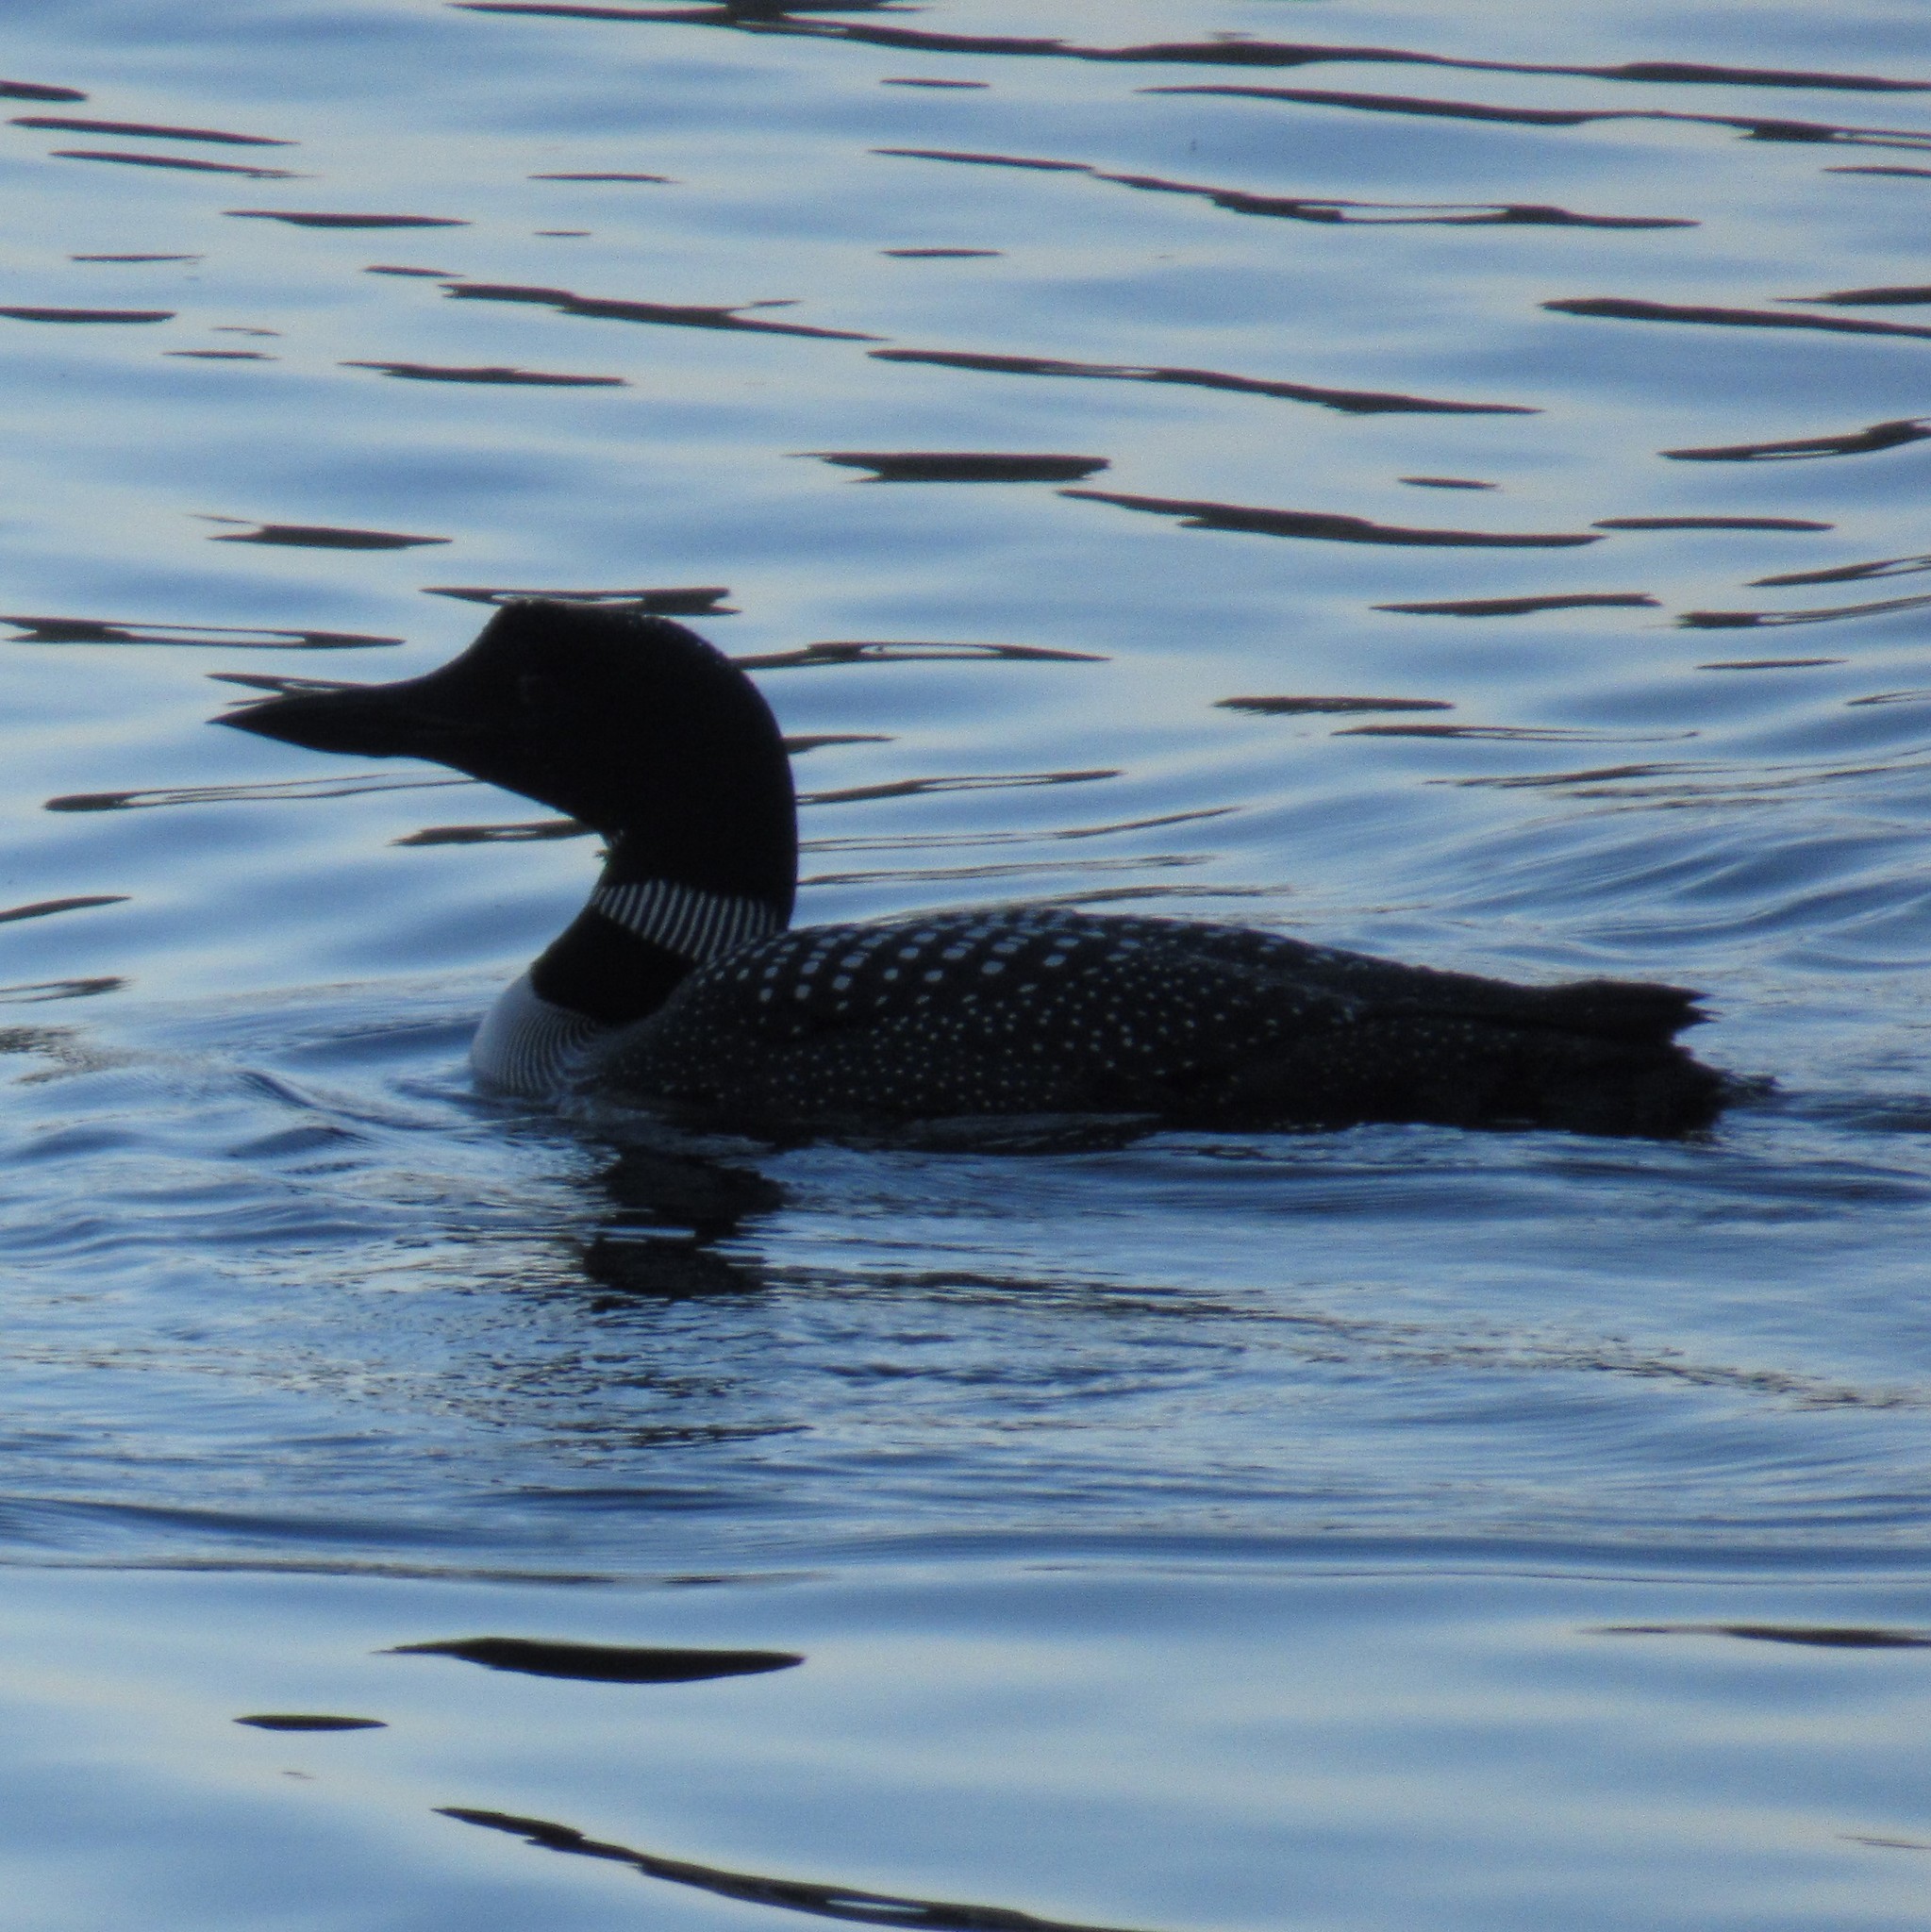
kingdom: Animalia
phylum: Chordata
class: Aves
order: Gaviiformes
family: Gaviidae
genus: Gavia
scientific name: Gavia immer
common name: Common loon
